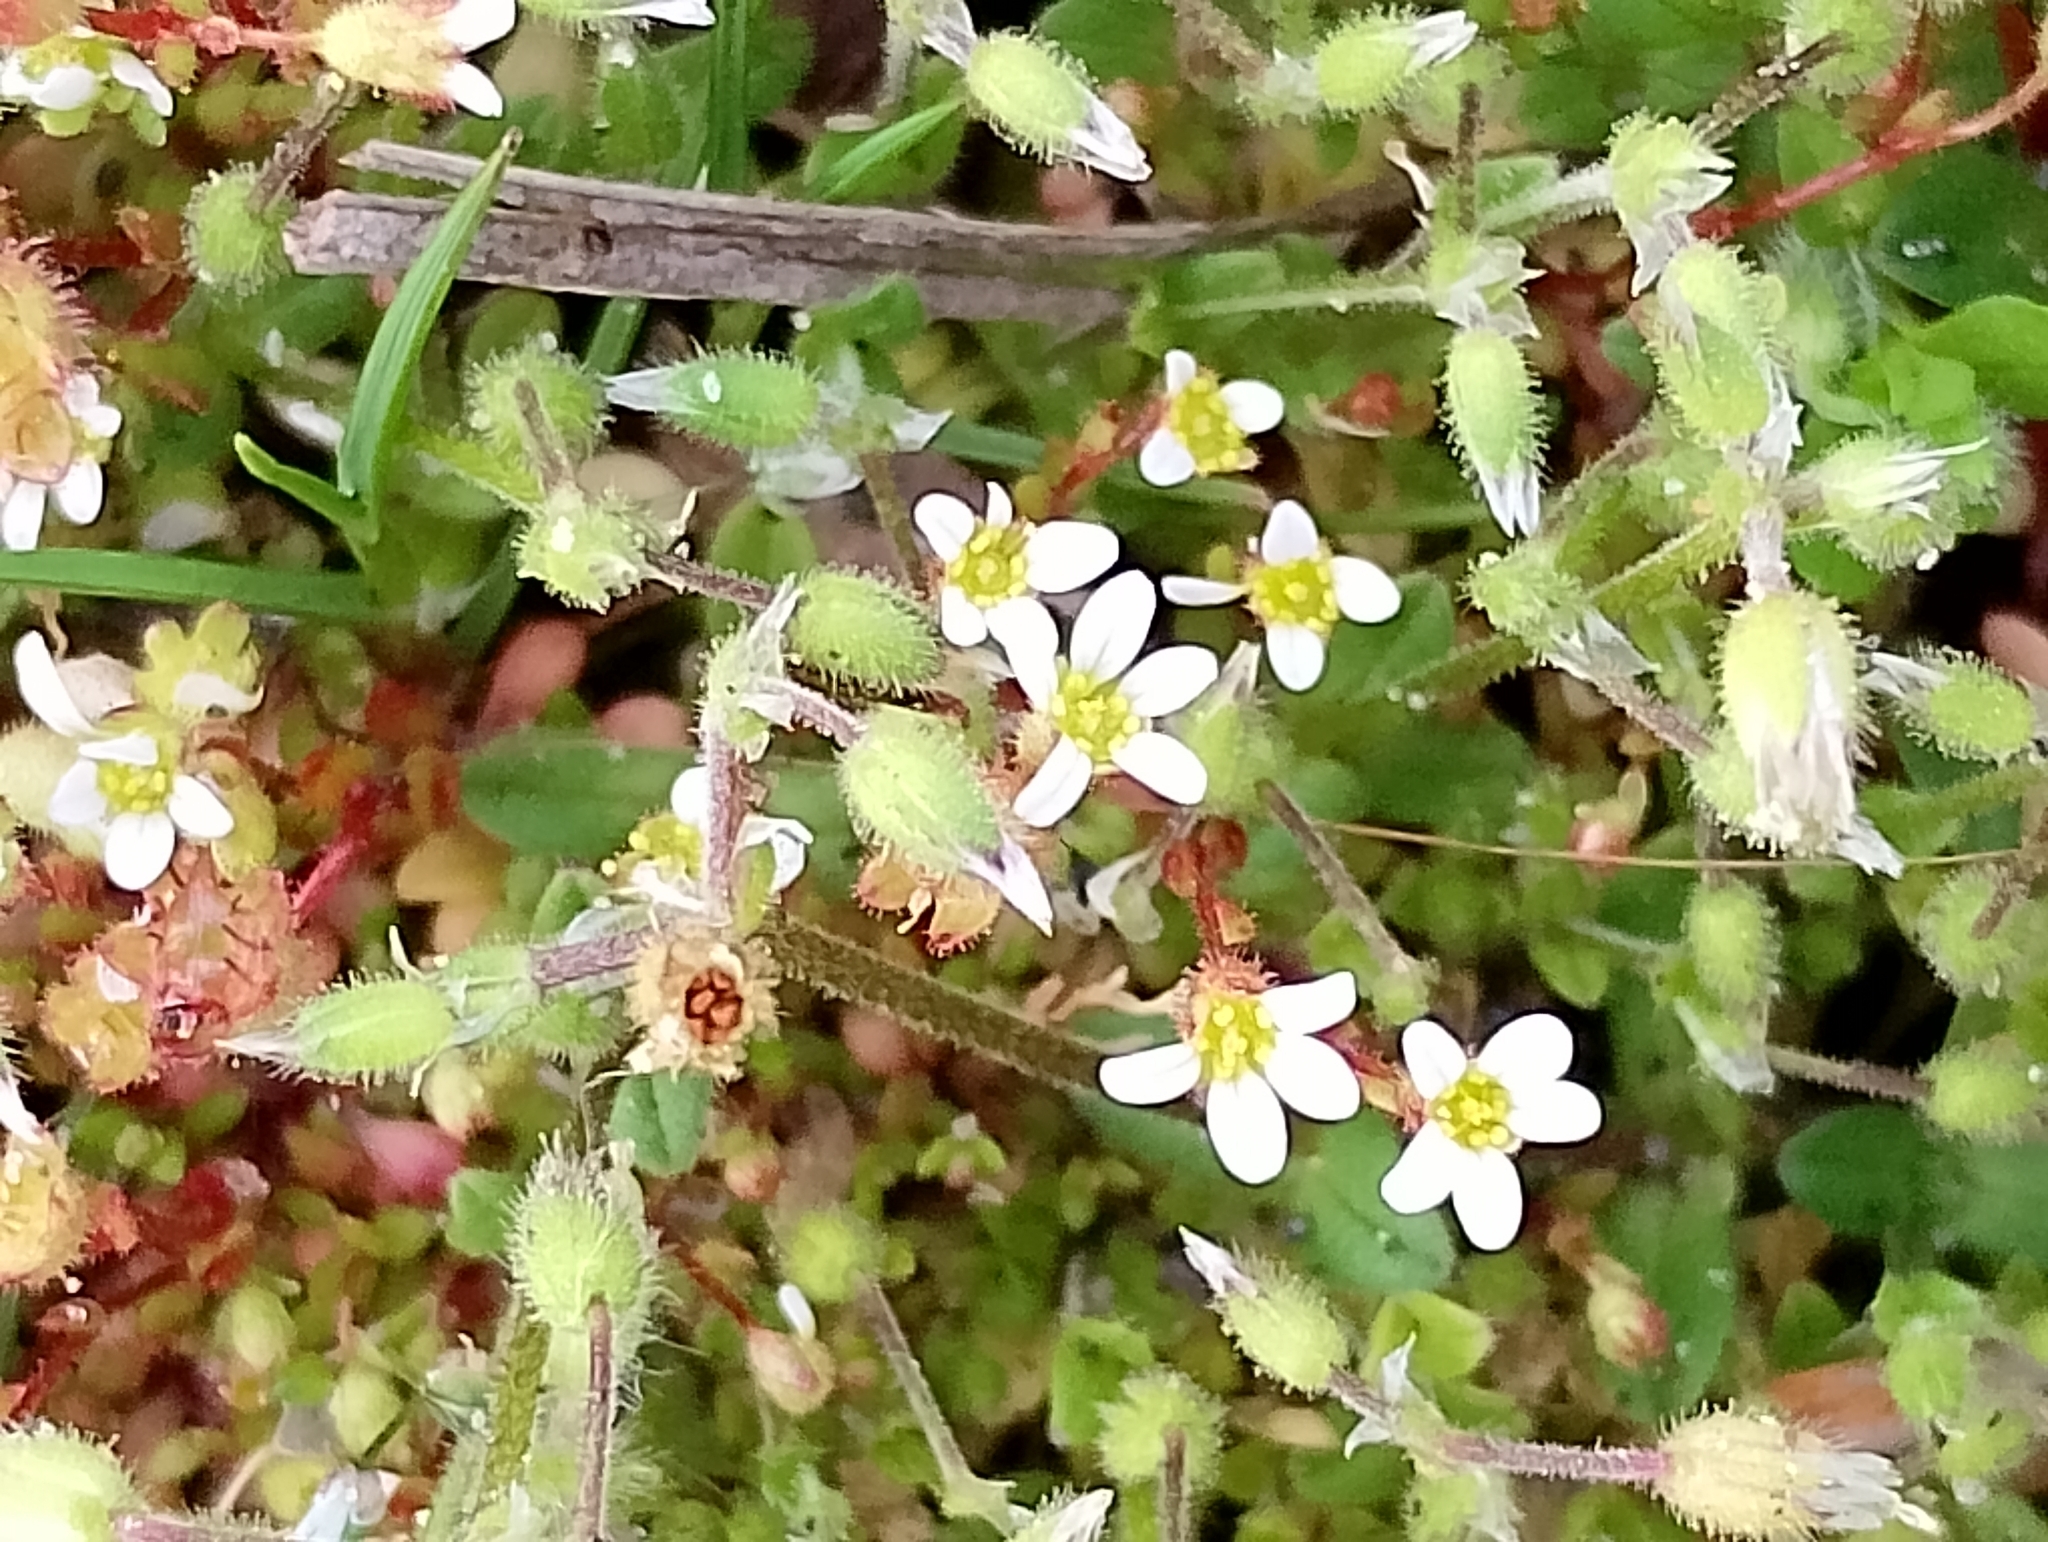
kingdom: Plantae
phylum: Tracheophyta
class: Magnoliopsida
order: Saxifragales
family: Saxifragaceae
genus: Saxifraga
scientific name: Saxifraga tridactylites
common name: Rue-leaved saxifrage
